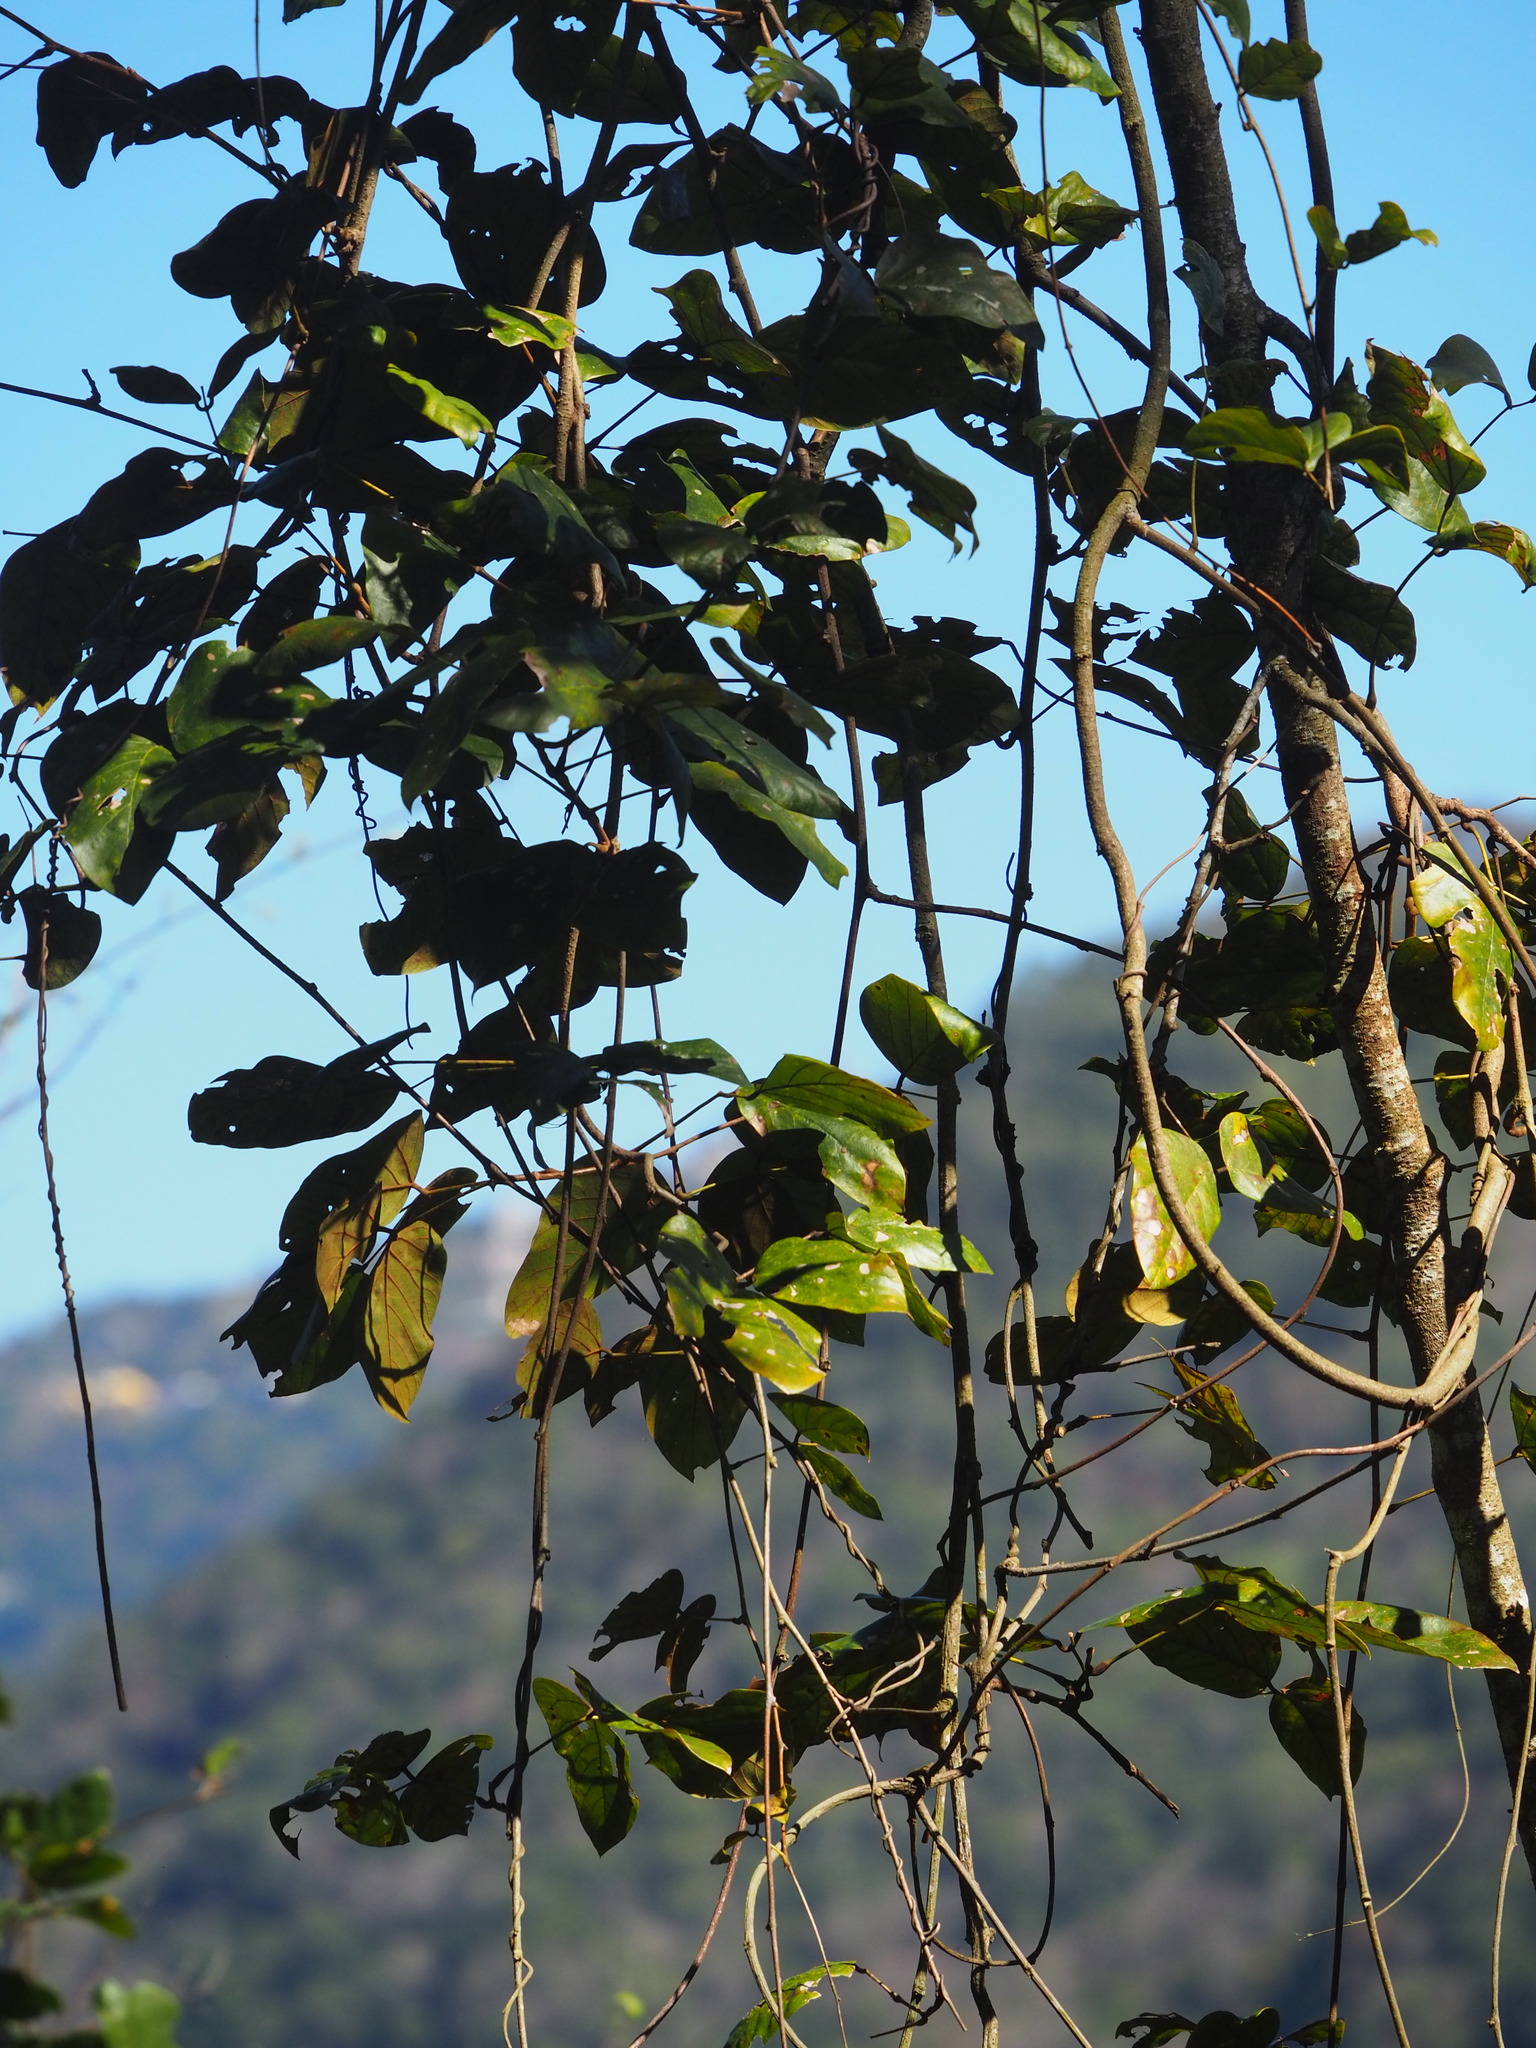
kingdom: Plantae
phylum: Tracheophyta
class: Magnoliopsida
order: Fabales
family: Fabaceae
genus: Mucuna
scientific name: Mucuna macrocarpa
